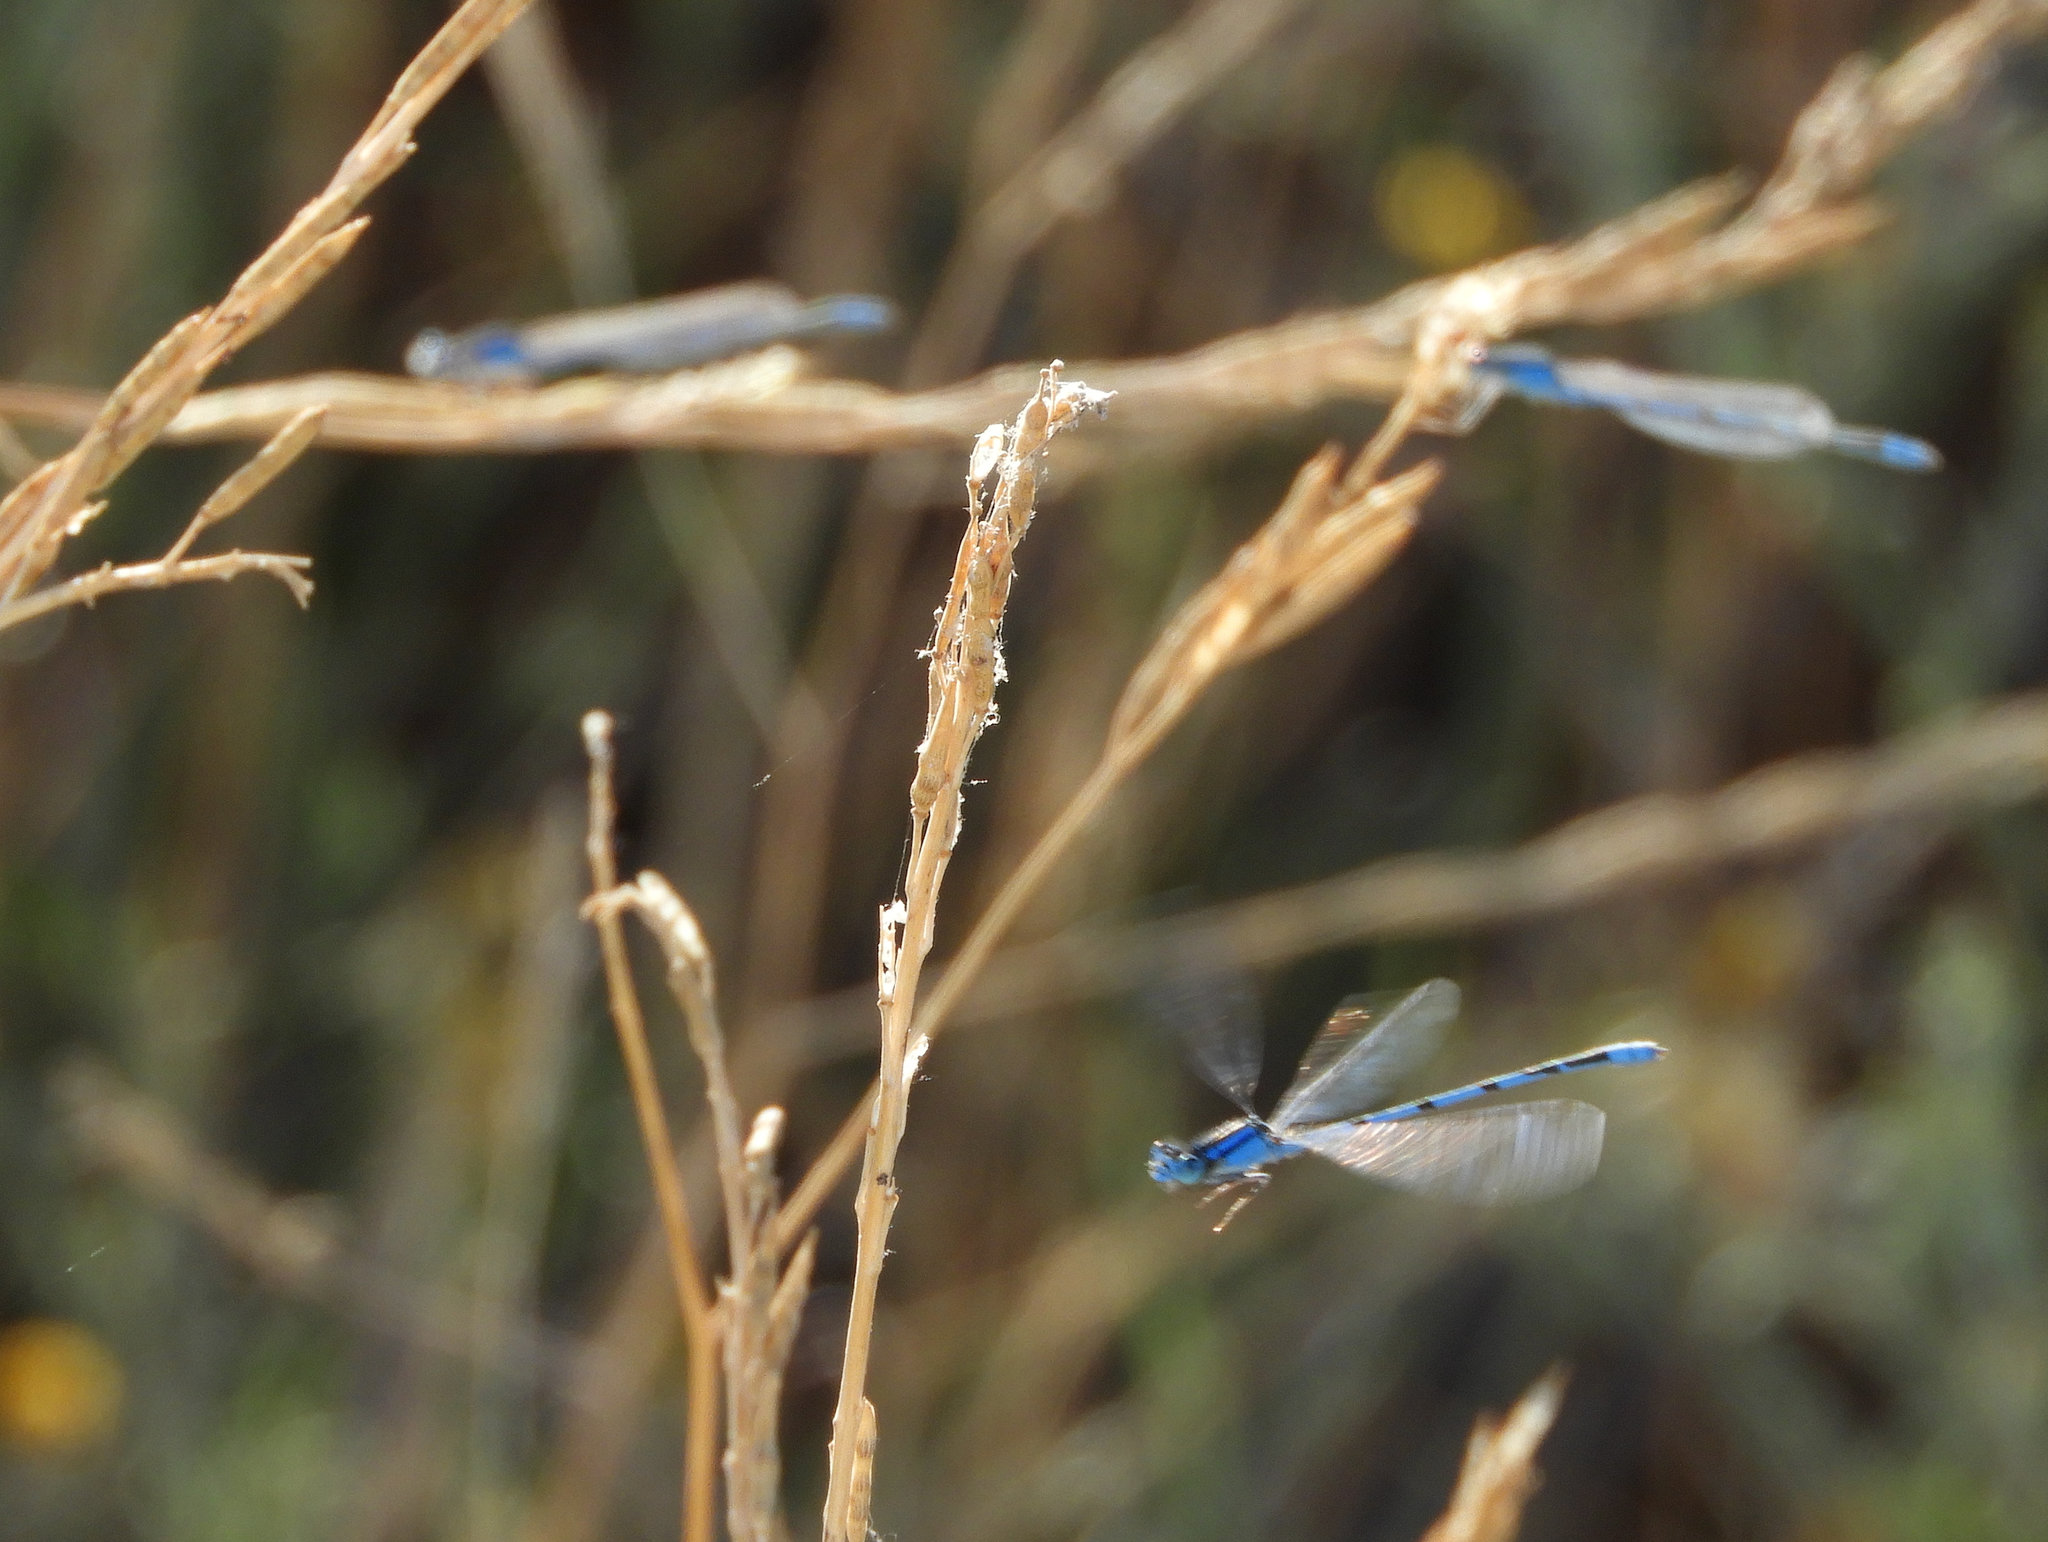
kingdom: Animalia
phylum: Arthropoda
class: Insecta
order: Odonata
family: Coenagrionidae
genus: Enallagma
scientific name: Enallagma civile
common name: Damselfly
